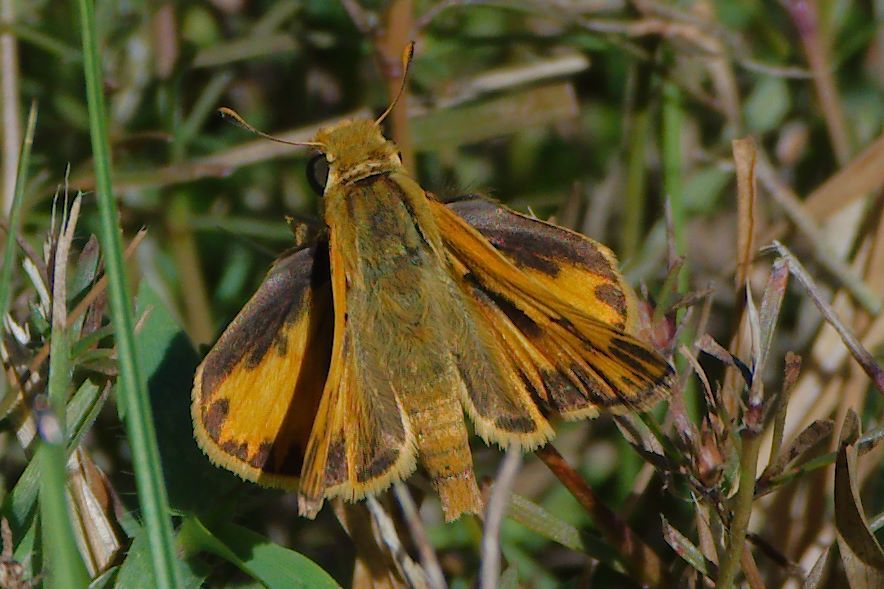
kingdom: Animalia
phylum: Arthropoda
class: Insecta
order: Lepidoptera
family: Hesperiidae
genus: Hylephila
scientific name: Hylephila phyleus
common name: Fiery skipper
